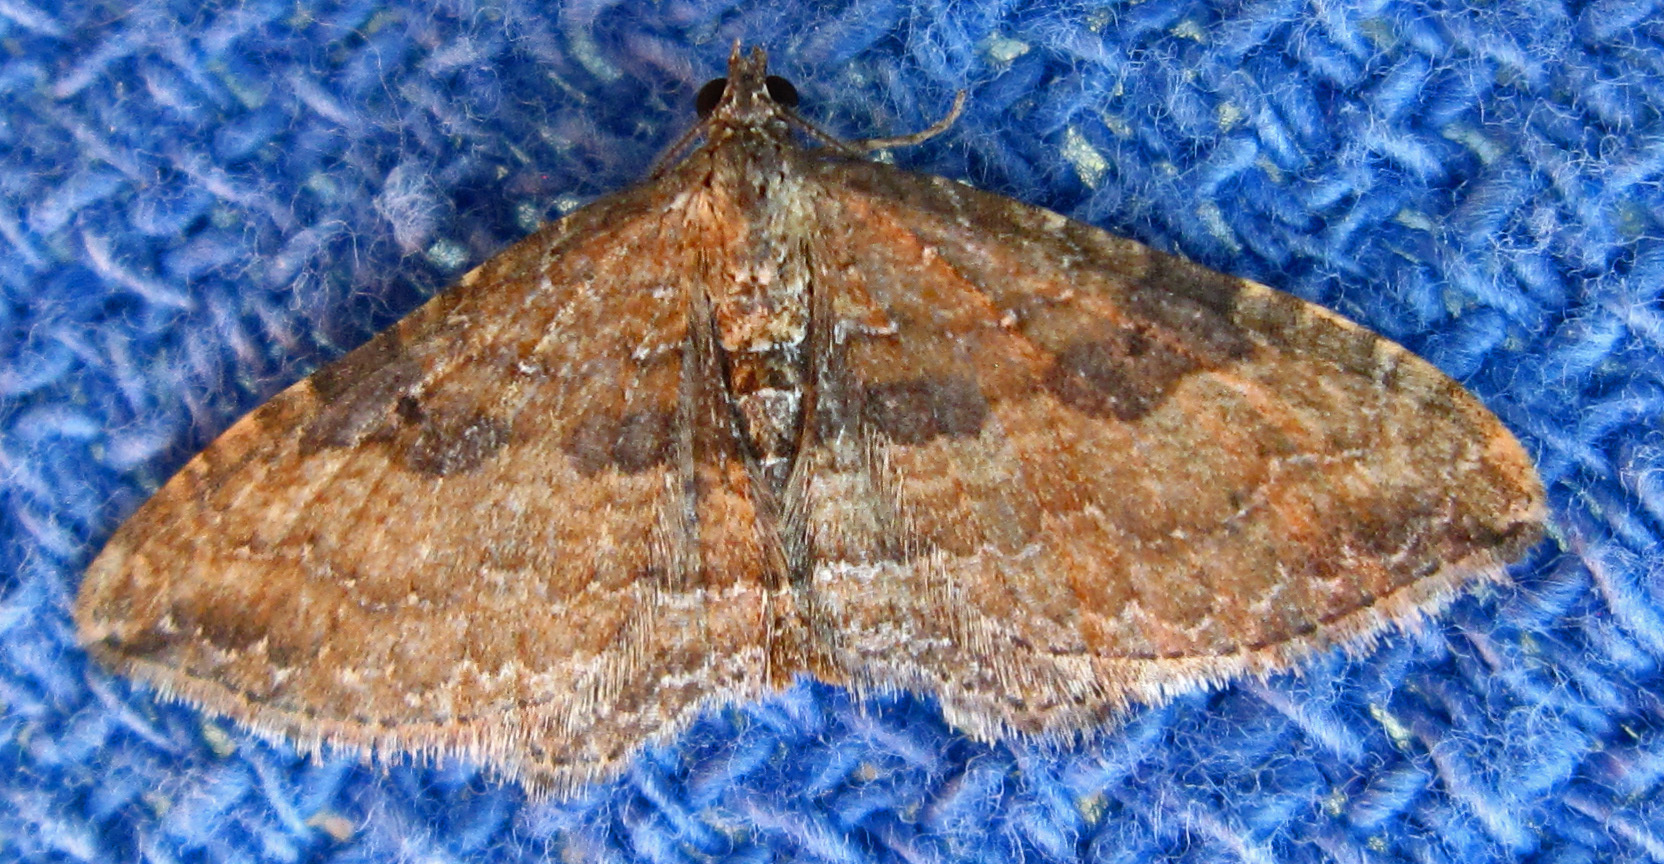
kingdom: Animalia
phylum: Arthropoda
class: Insecta
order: Lepidoptera
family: Geometridae
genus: Orthonama
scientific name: Orthonama obstipata
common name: The gem
